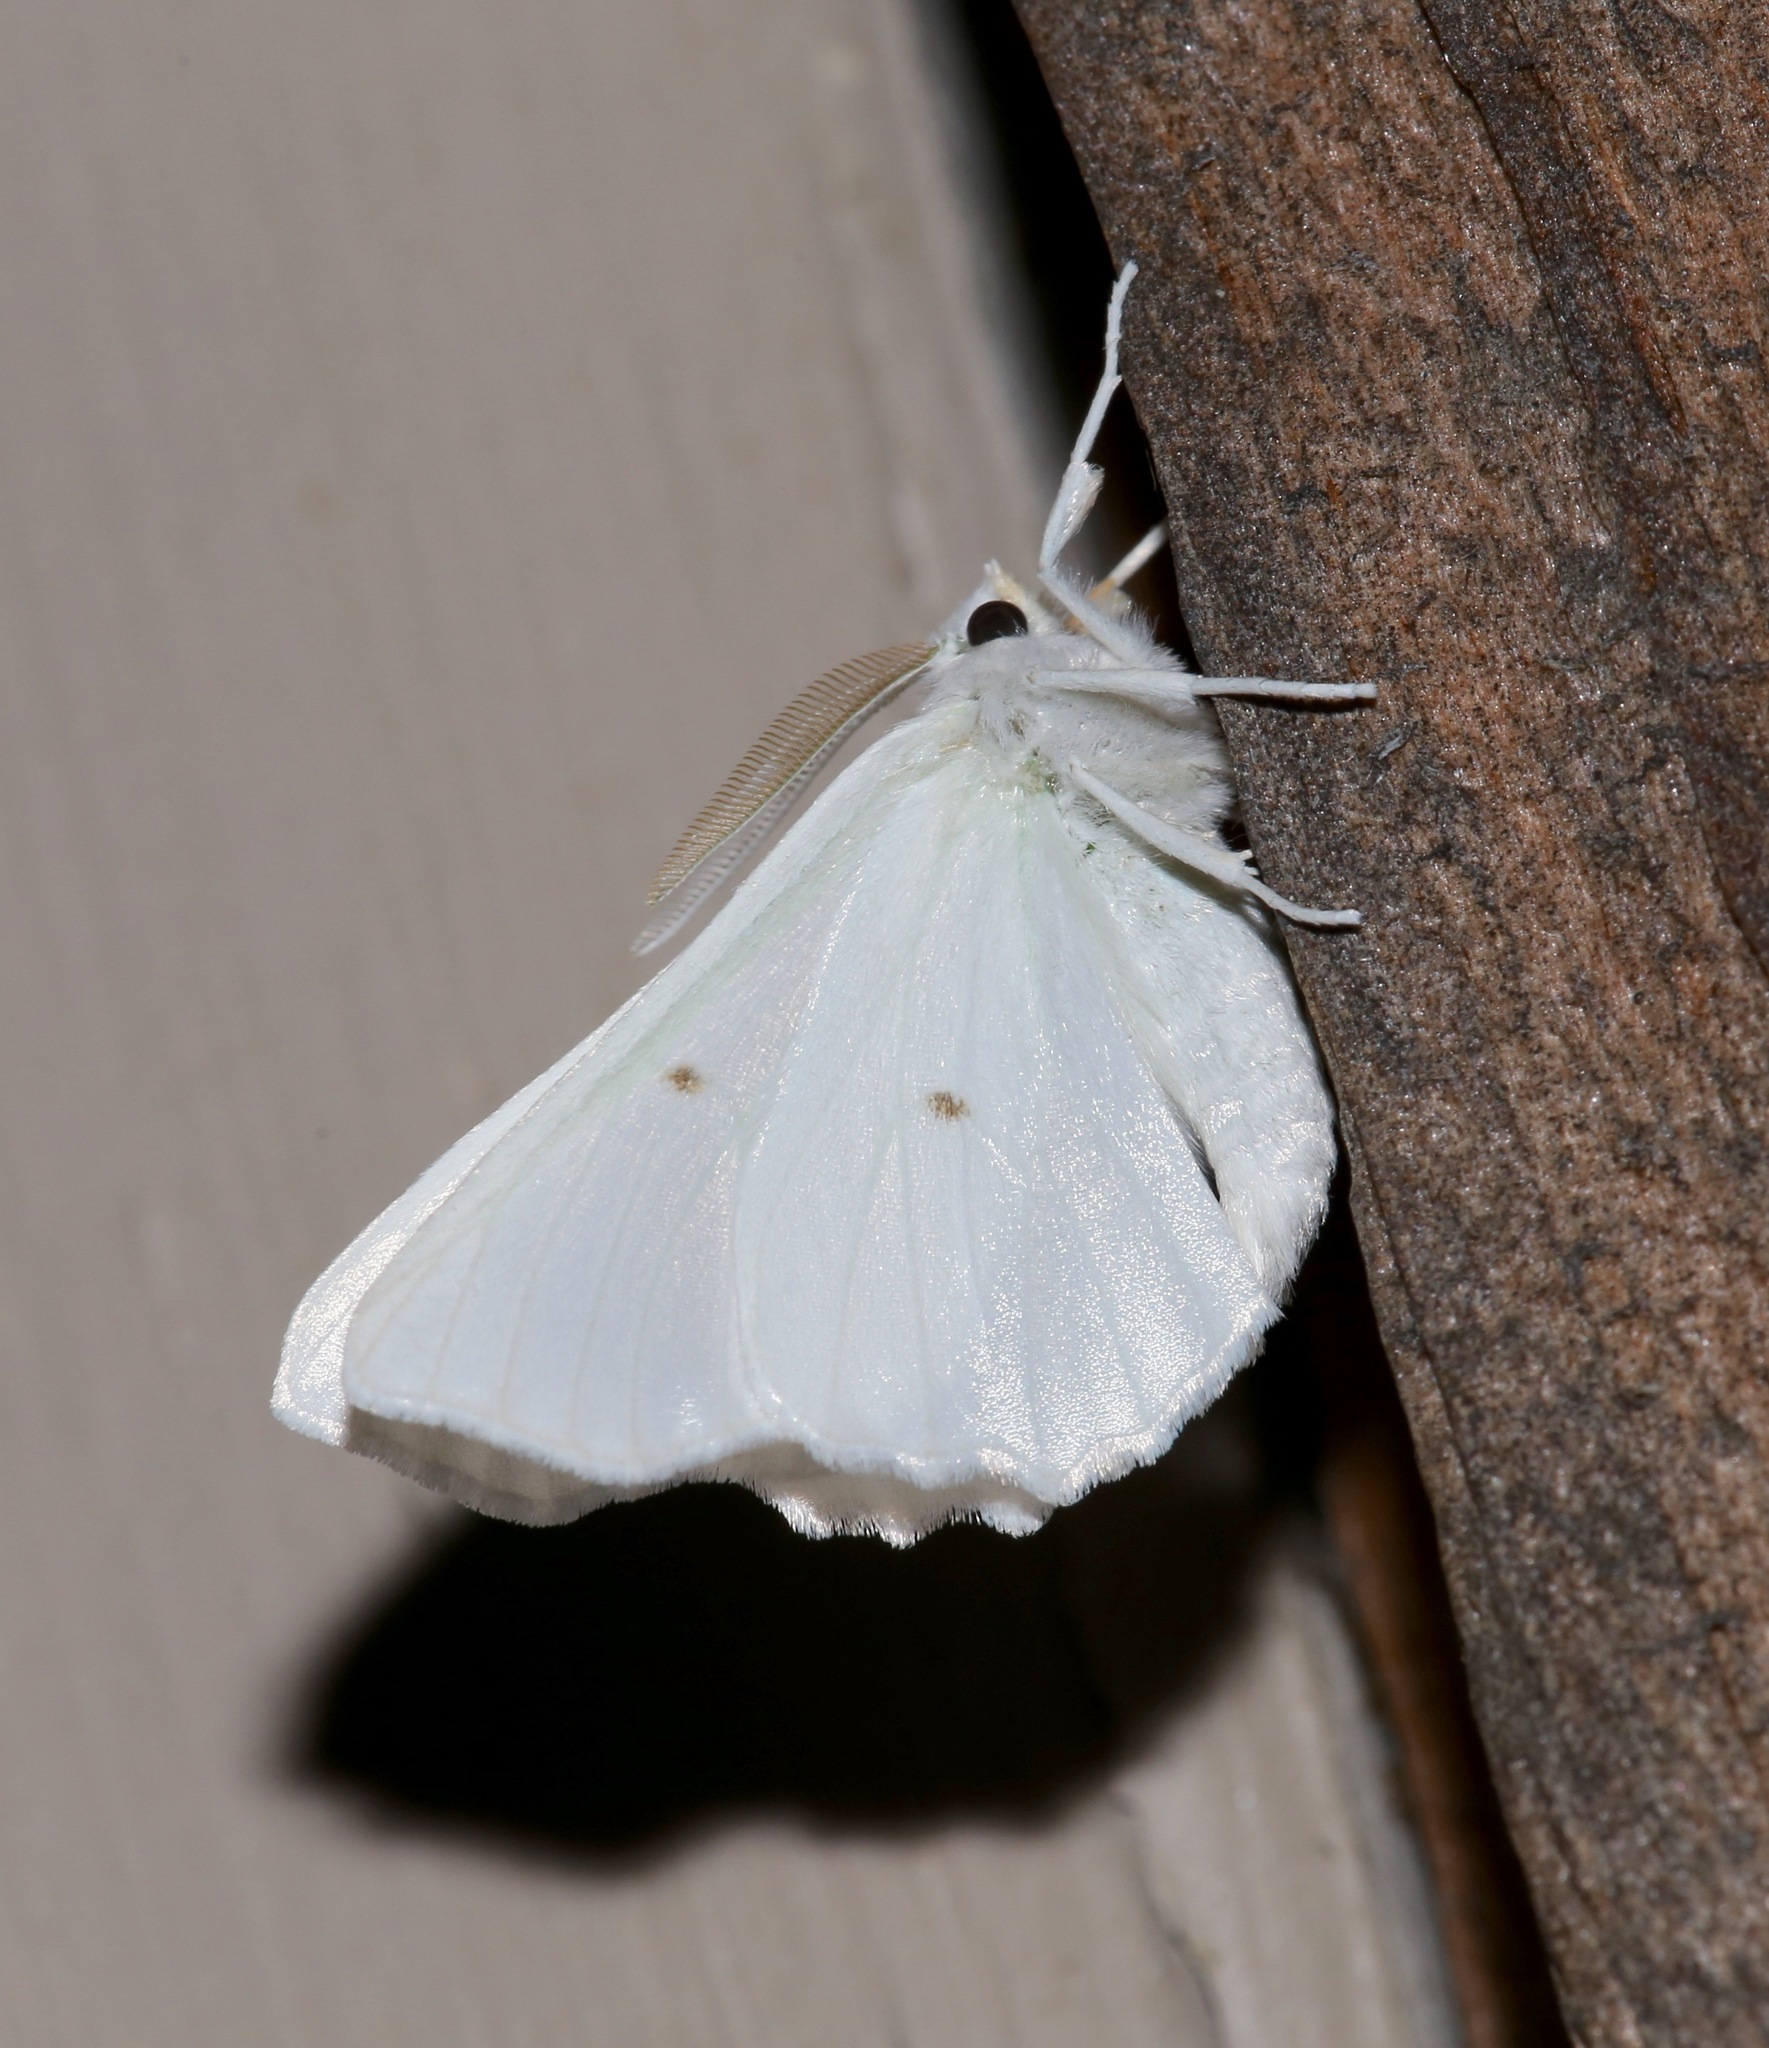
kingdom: Animalia
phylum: Arthropoda
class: Insecta
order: Lepidoptera
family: Geometridae
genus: Ennomos
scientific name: Ennomos subsignaria
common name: Elm spanworm
